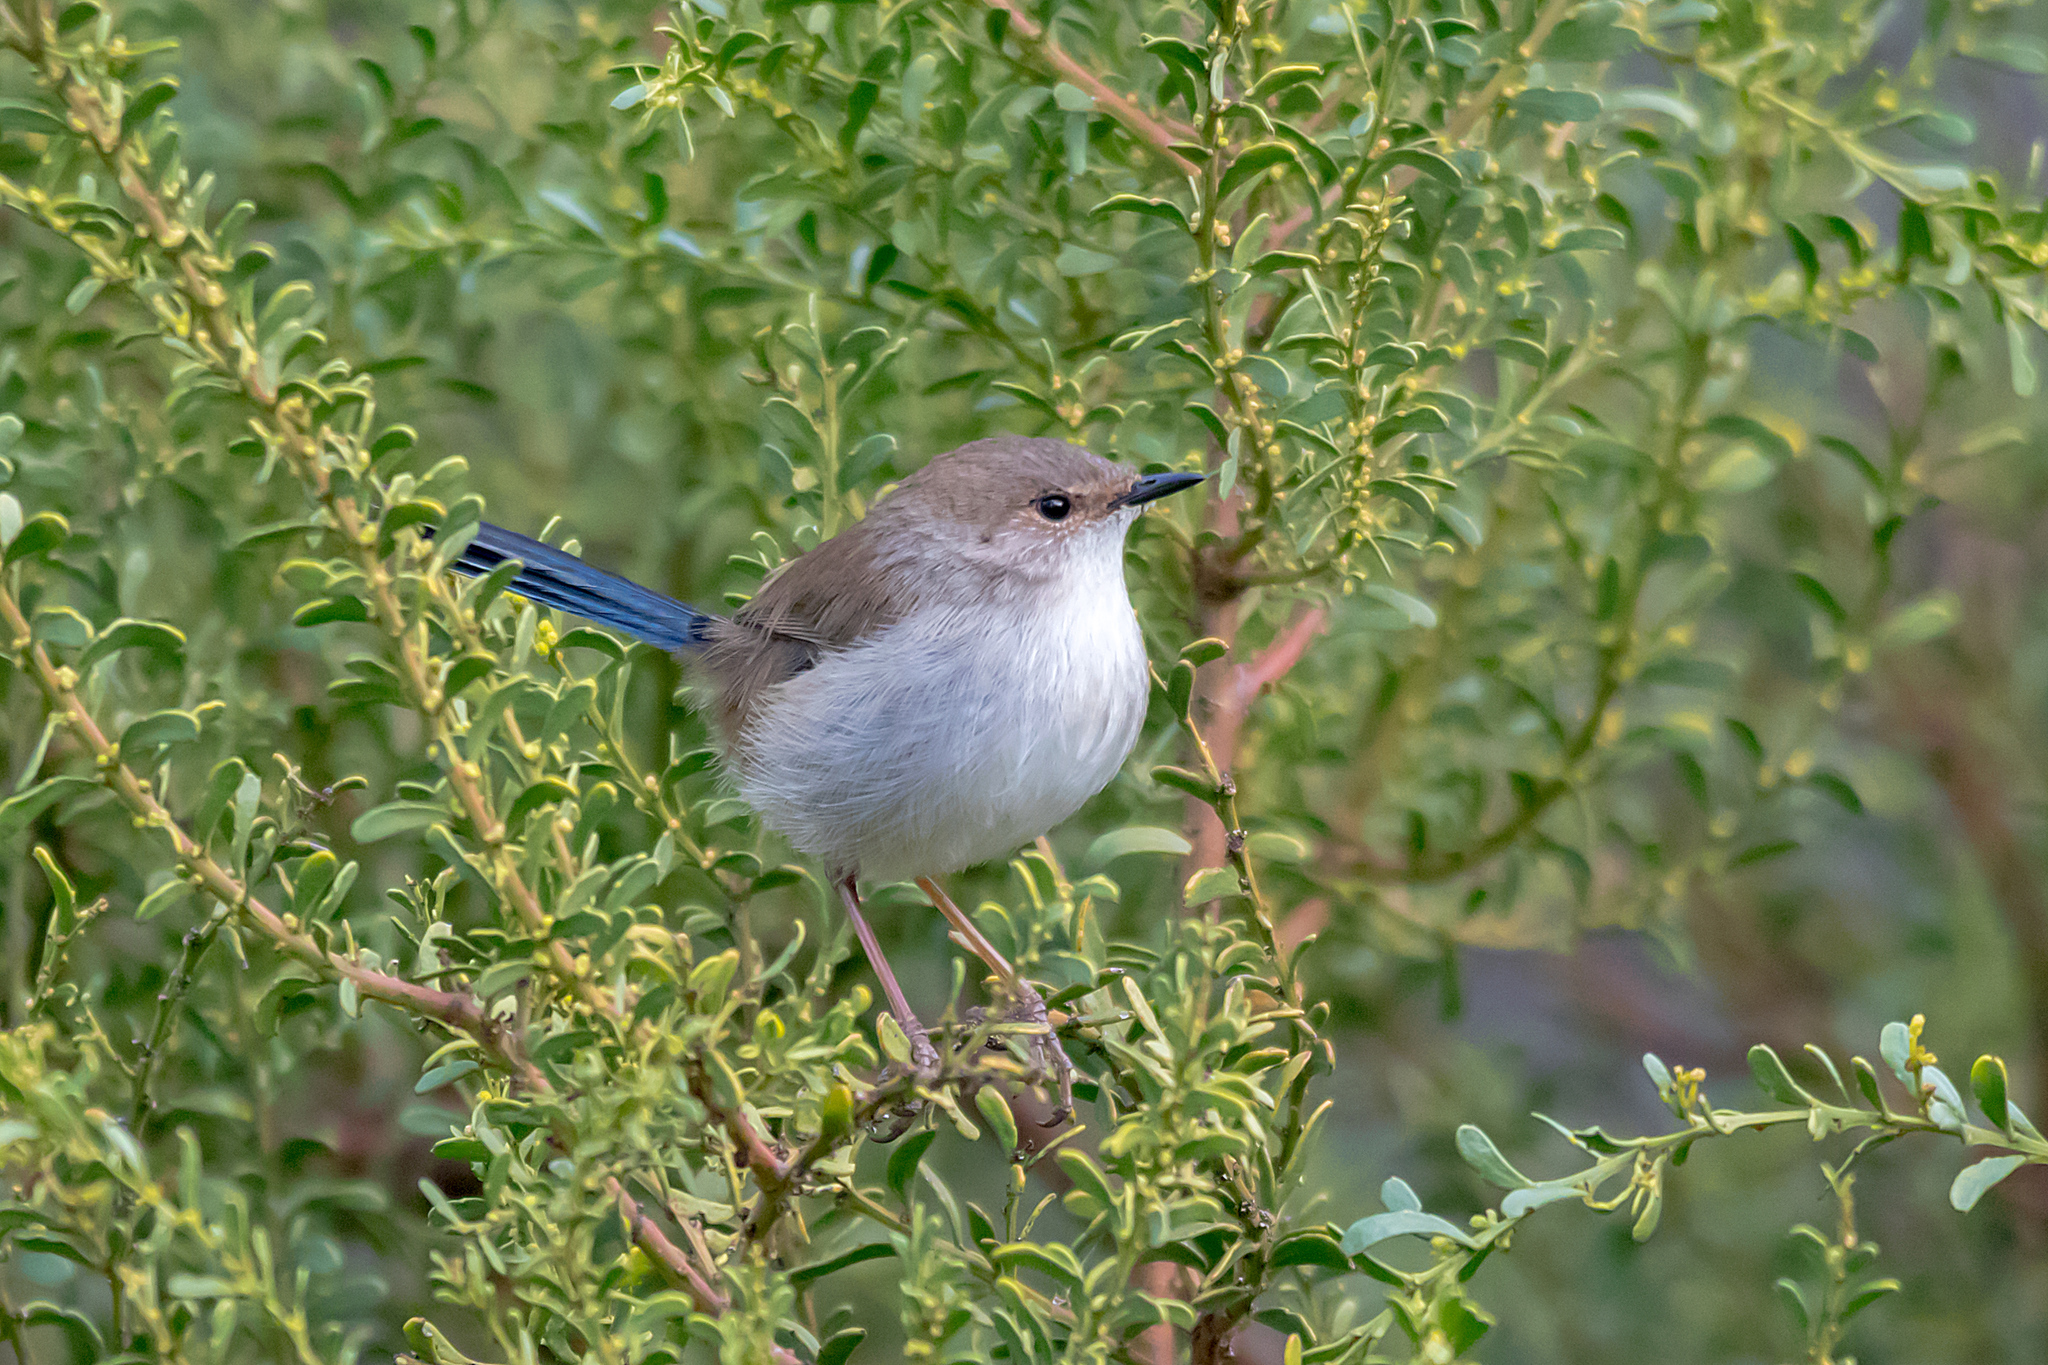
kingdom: Animalia
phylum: Chordata
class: Aves
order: Passeriformes
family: Maluridae
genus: Malurus
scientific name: Malurus cyaneus
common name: Superb fairywren
